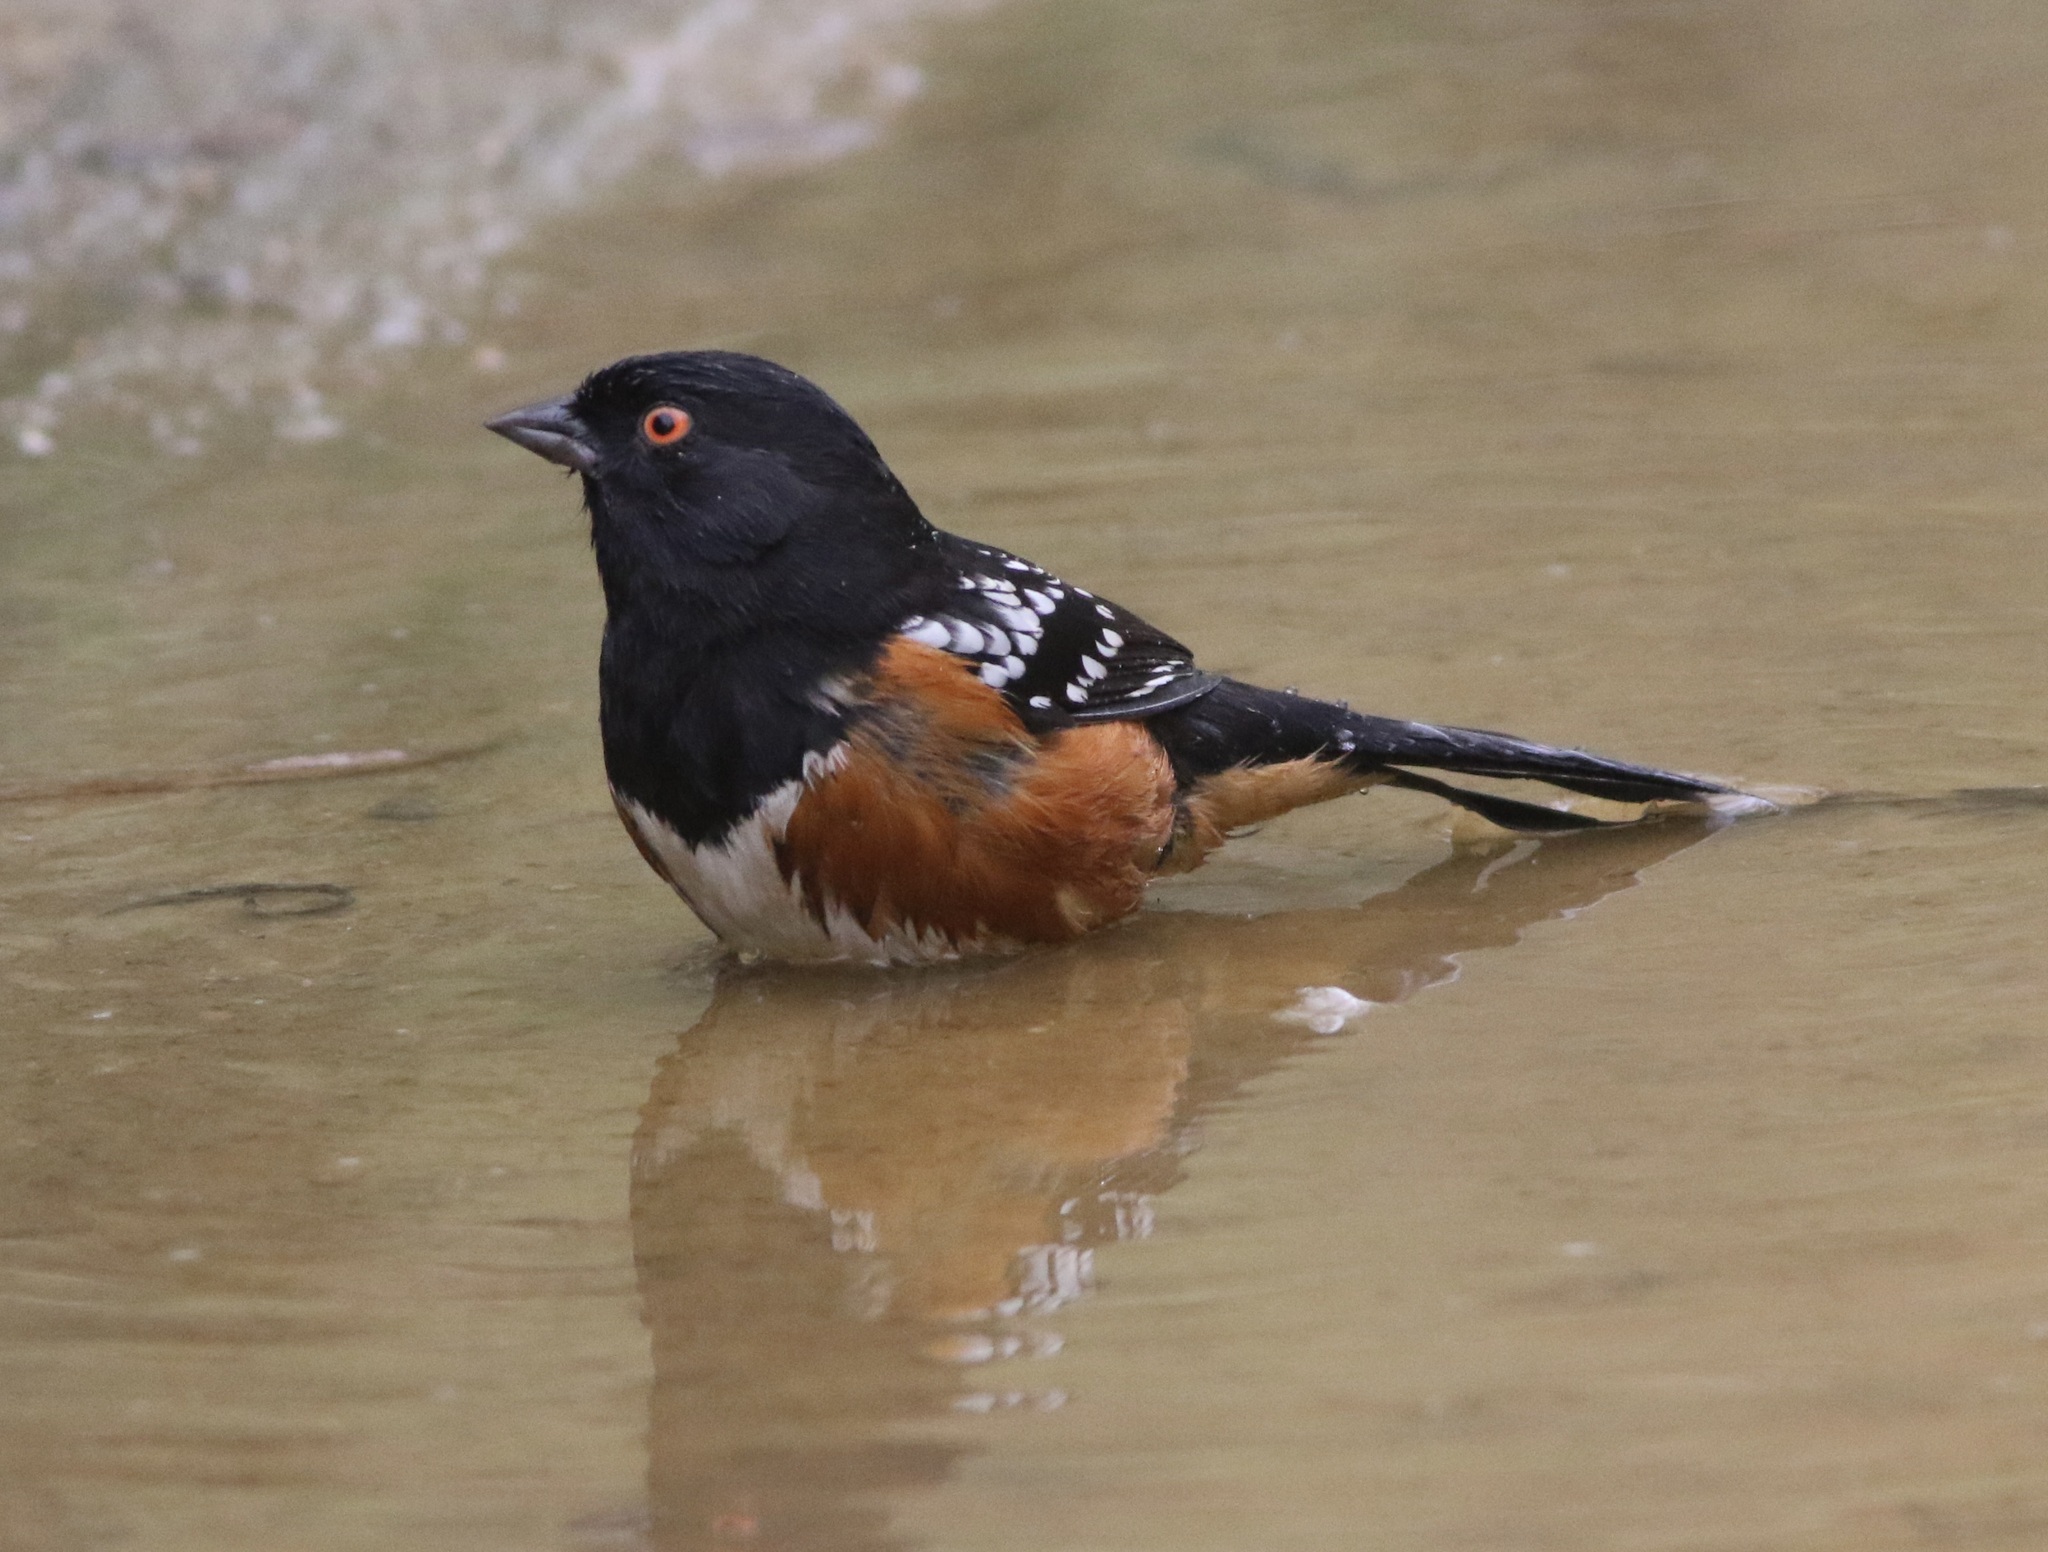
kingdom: Animalia
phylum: Chordata
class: Aves
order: Passeriformes
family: Passerellidae
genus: Pipilo
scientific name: Pipilo maculatus
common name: Spotted towhee
